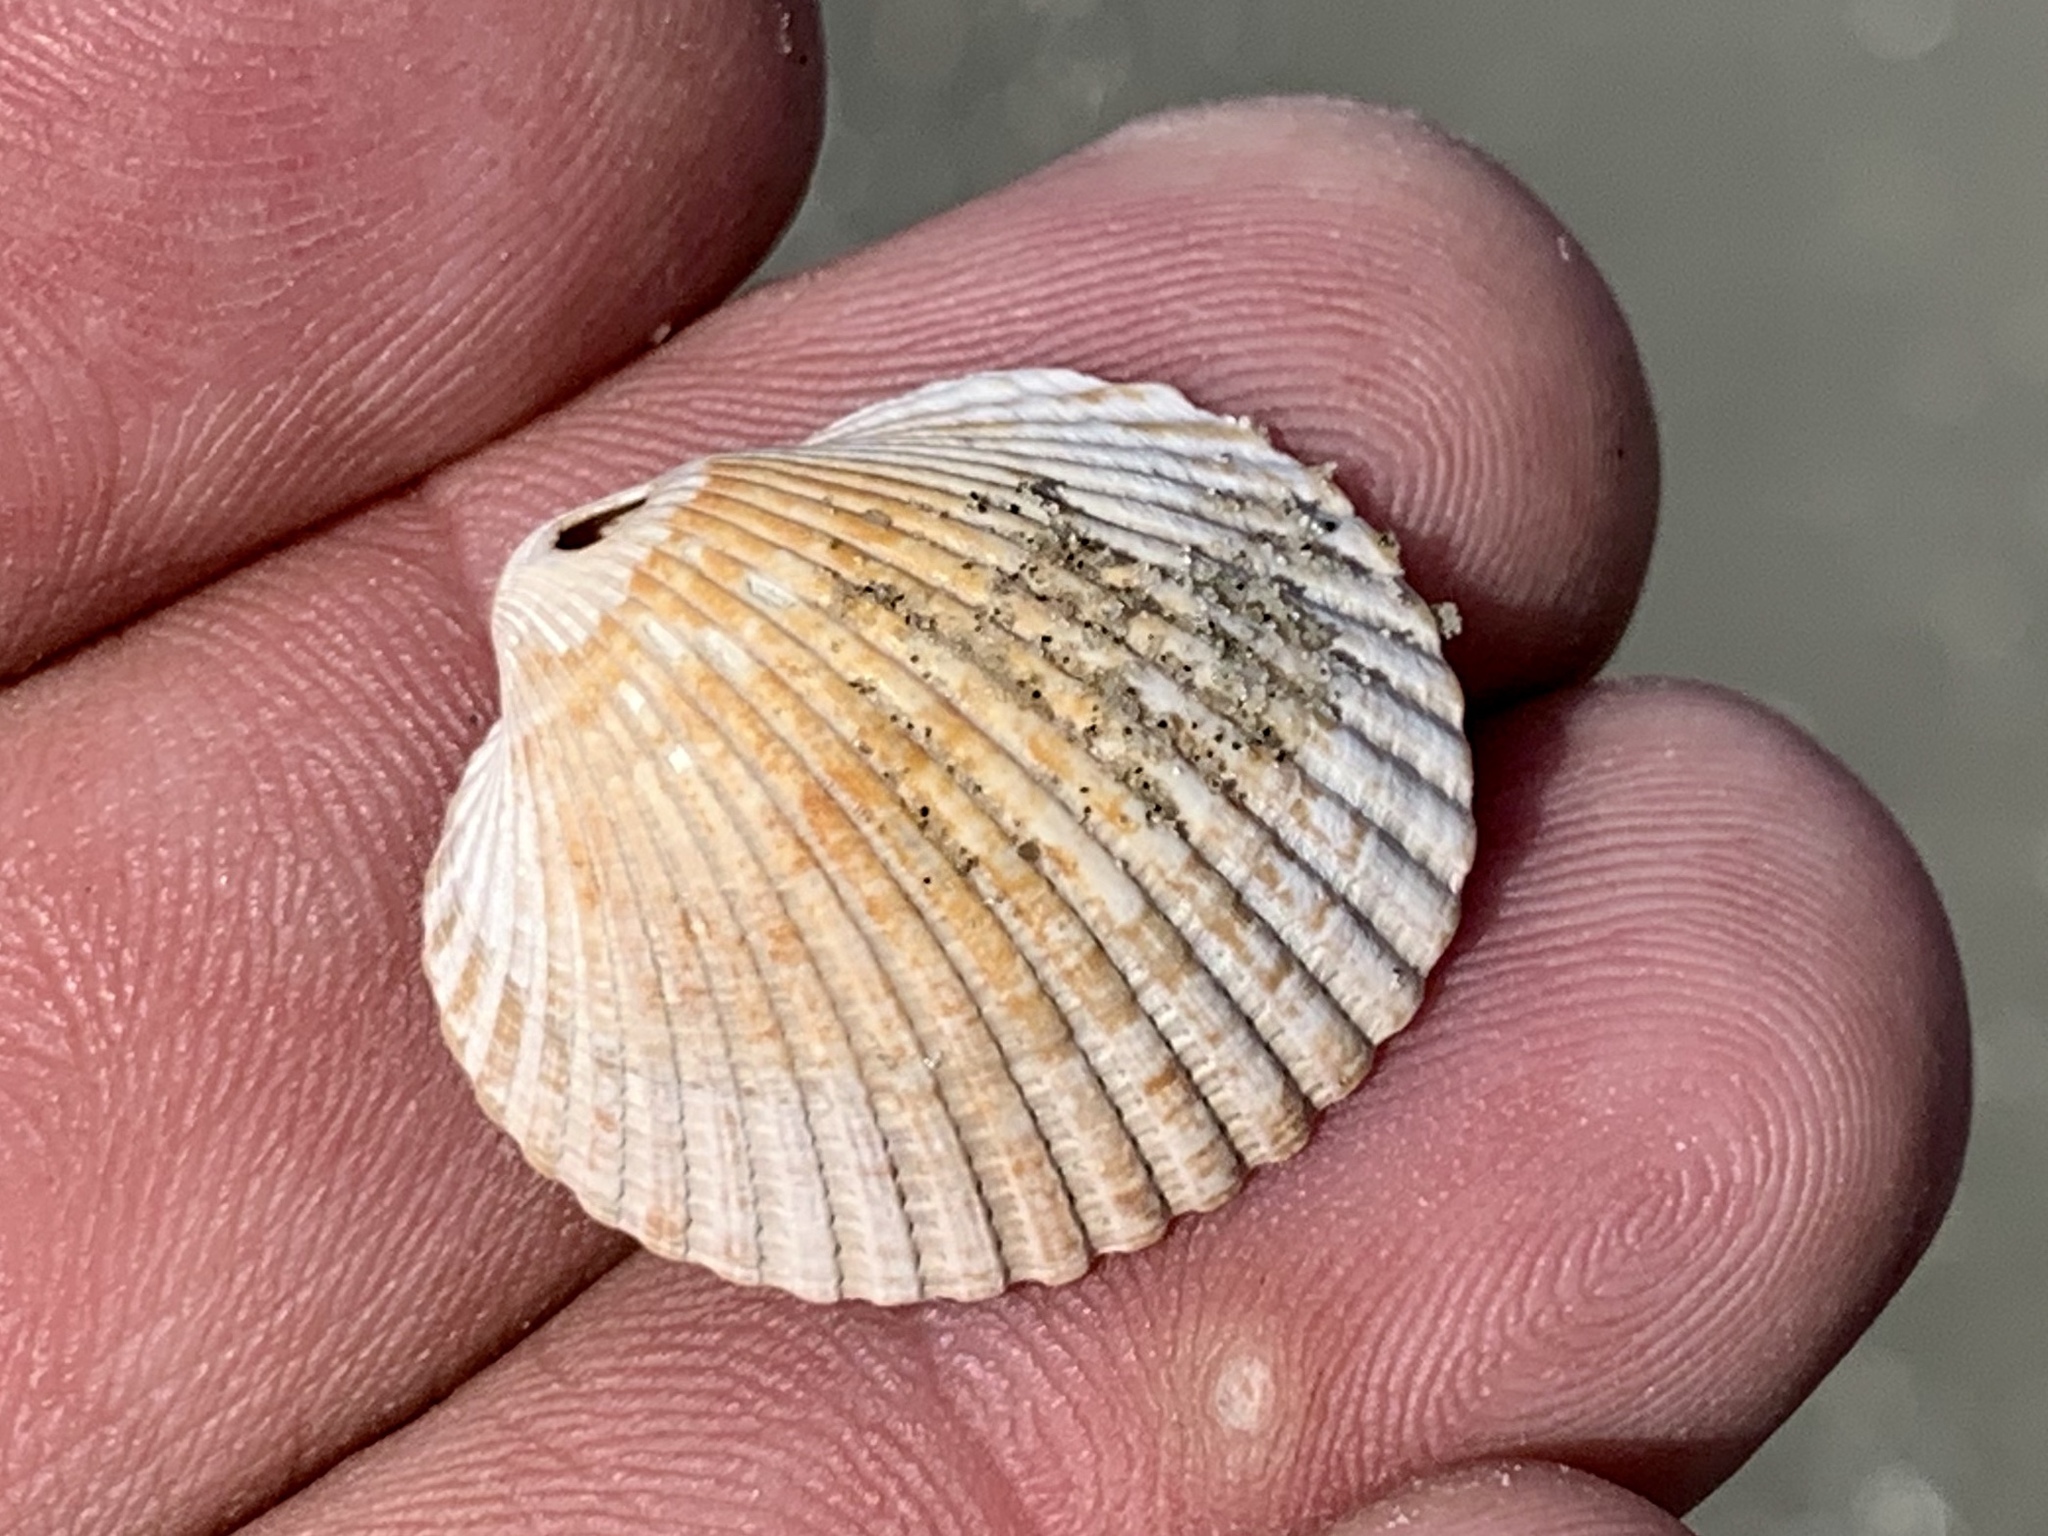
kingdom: Animalia
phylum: Mollusca
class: Bivalvia
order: Arcida
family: Arcidae
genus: Lunarca
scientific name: Lunarca ovalis
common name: Blood ark
